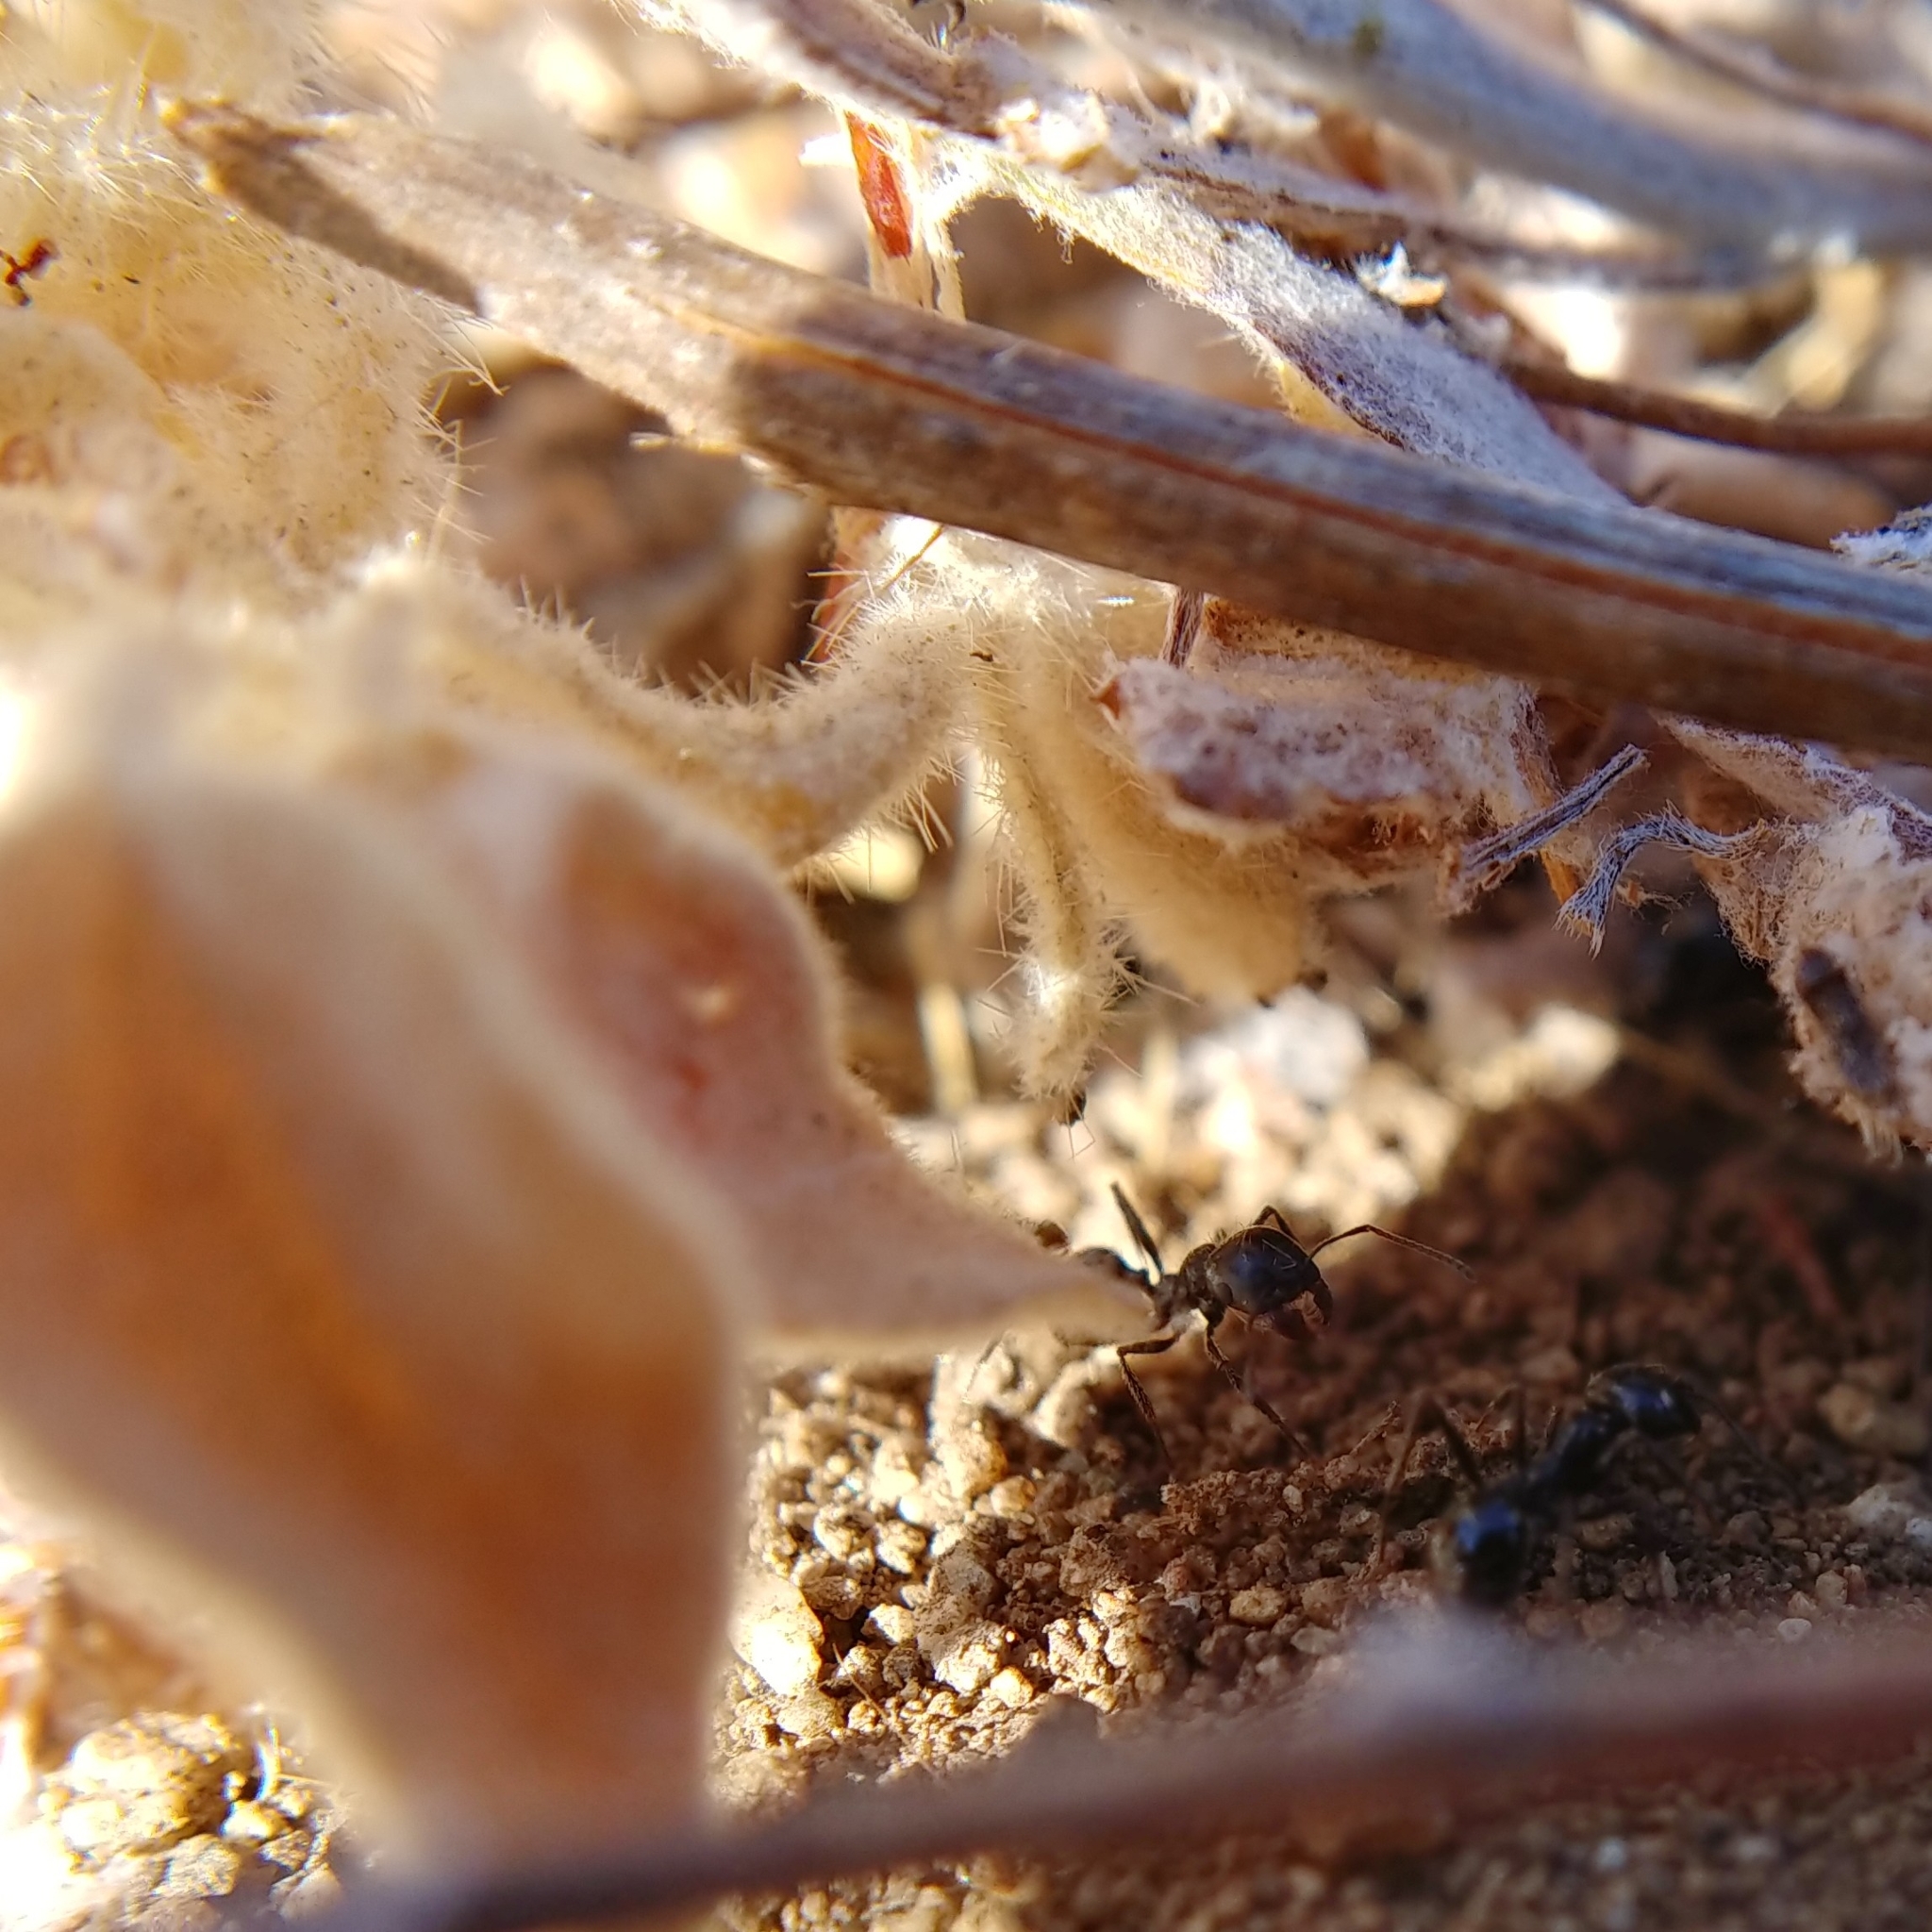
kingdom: Animalia
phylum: Arthropoda
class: Insecta
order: Hymenoptera
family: Formicidae
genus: Messor
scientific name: Messor pergandei
